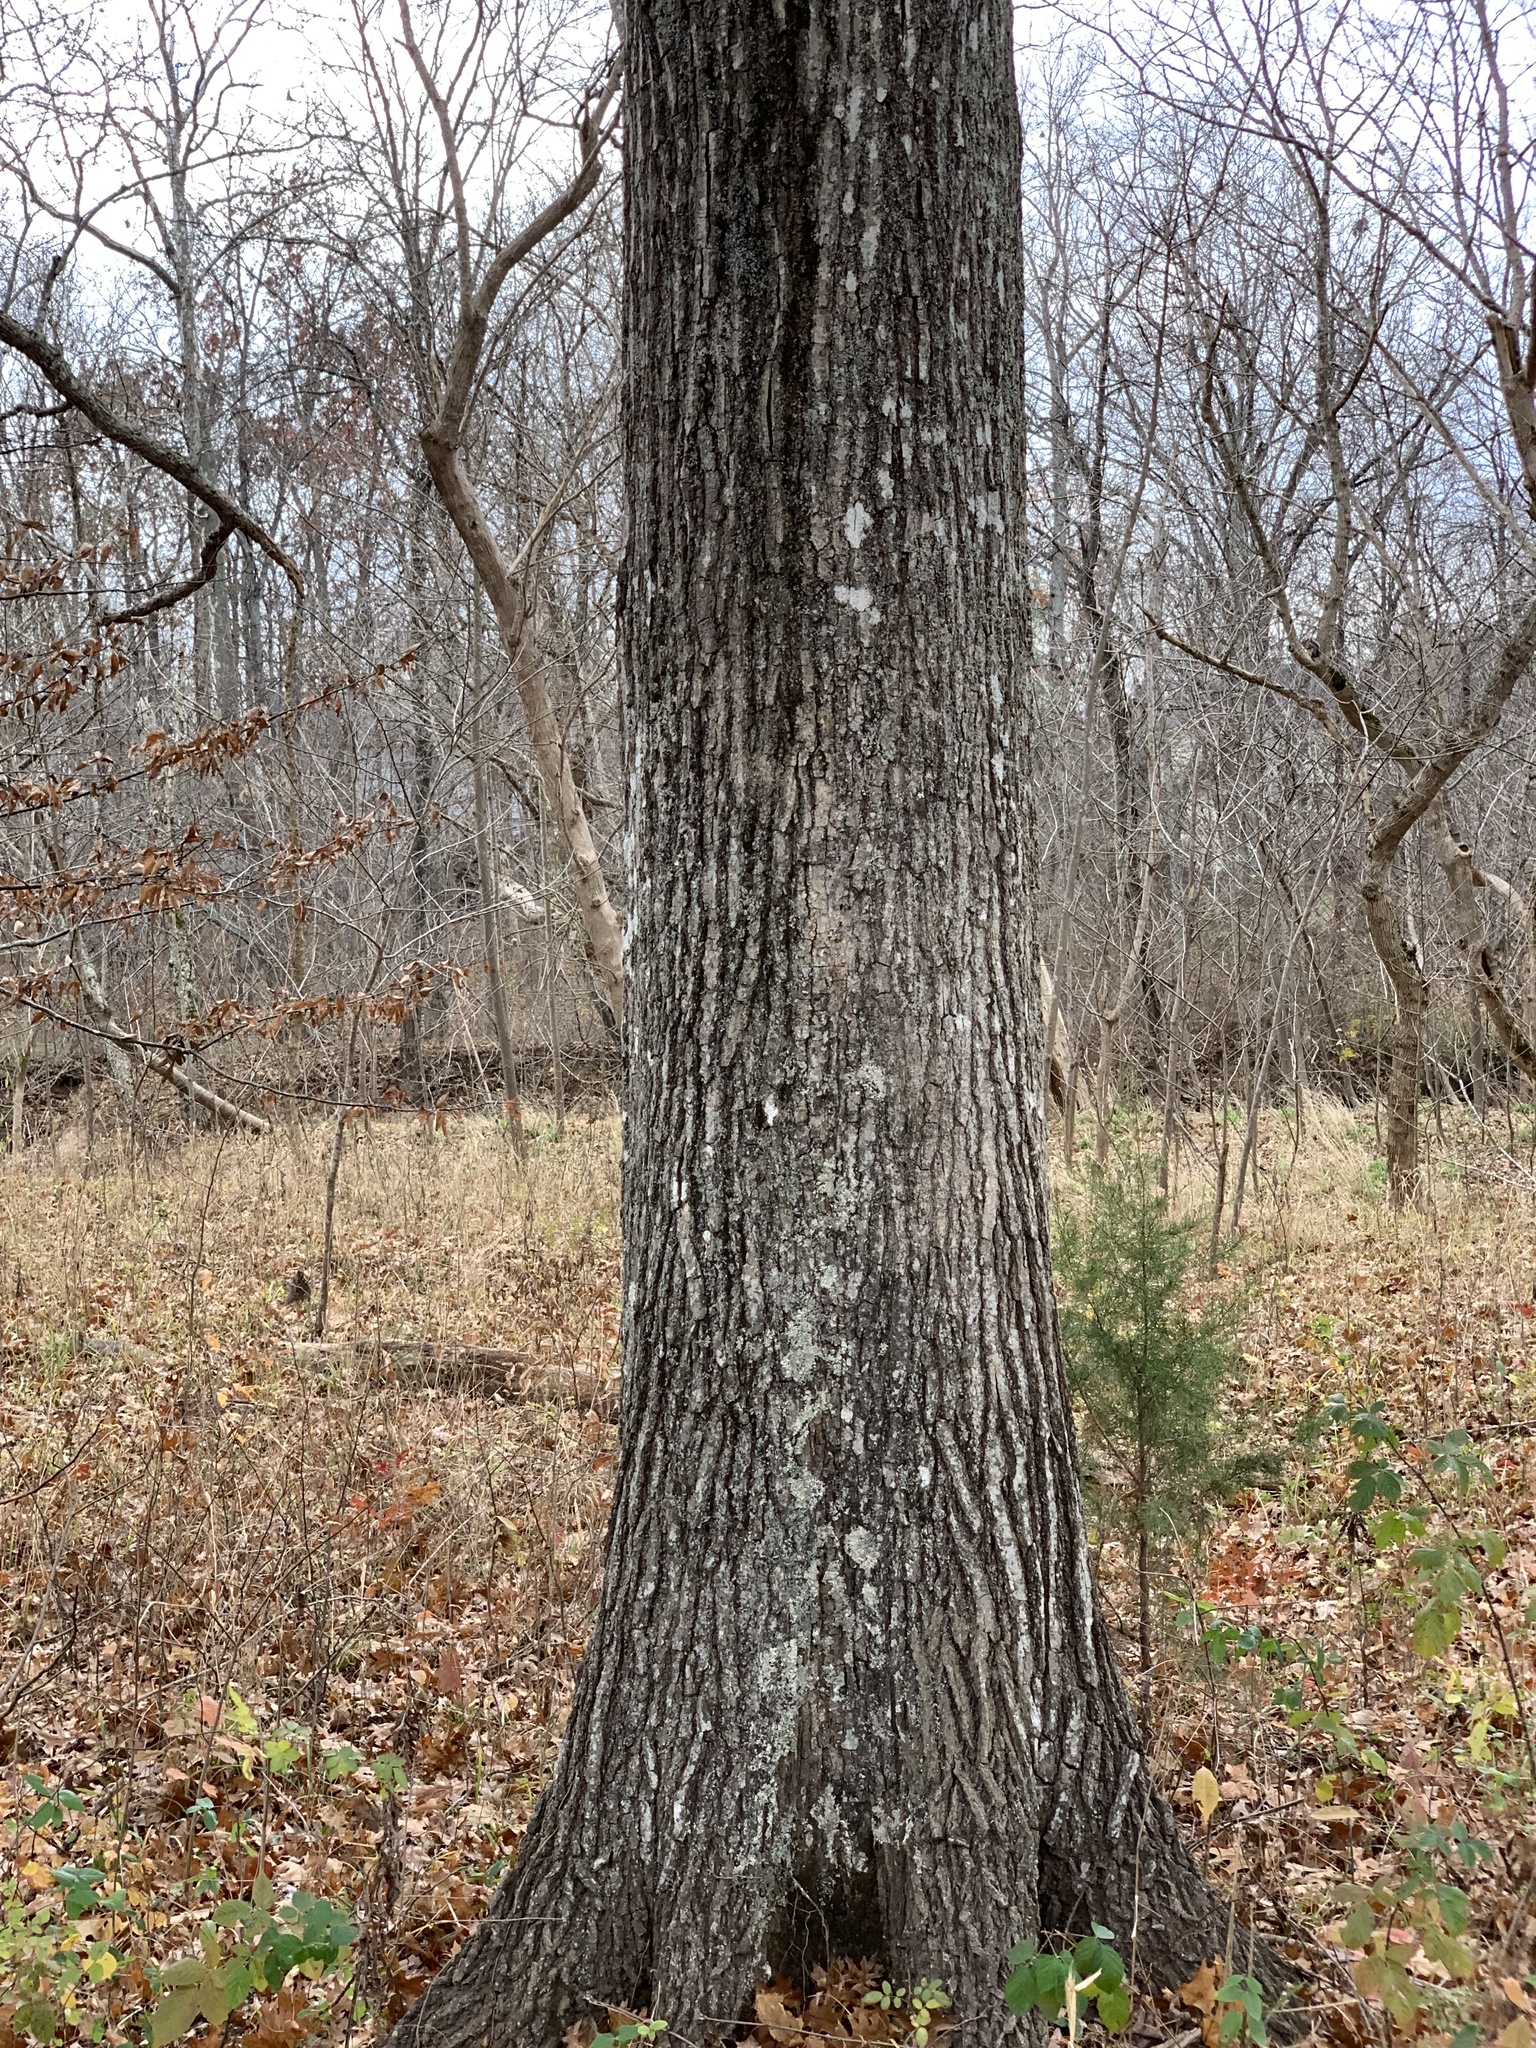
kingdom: Plantae
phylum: Tracheophyta
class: Magnoliopsida
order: Fagales
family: Fagaceae
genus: Quercus
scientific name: Quercus shumardii
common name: Shumard oak
